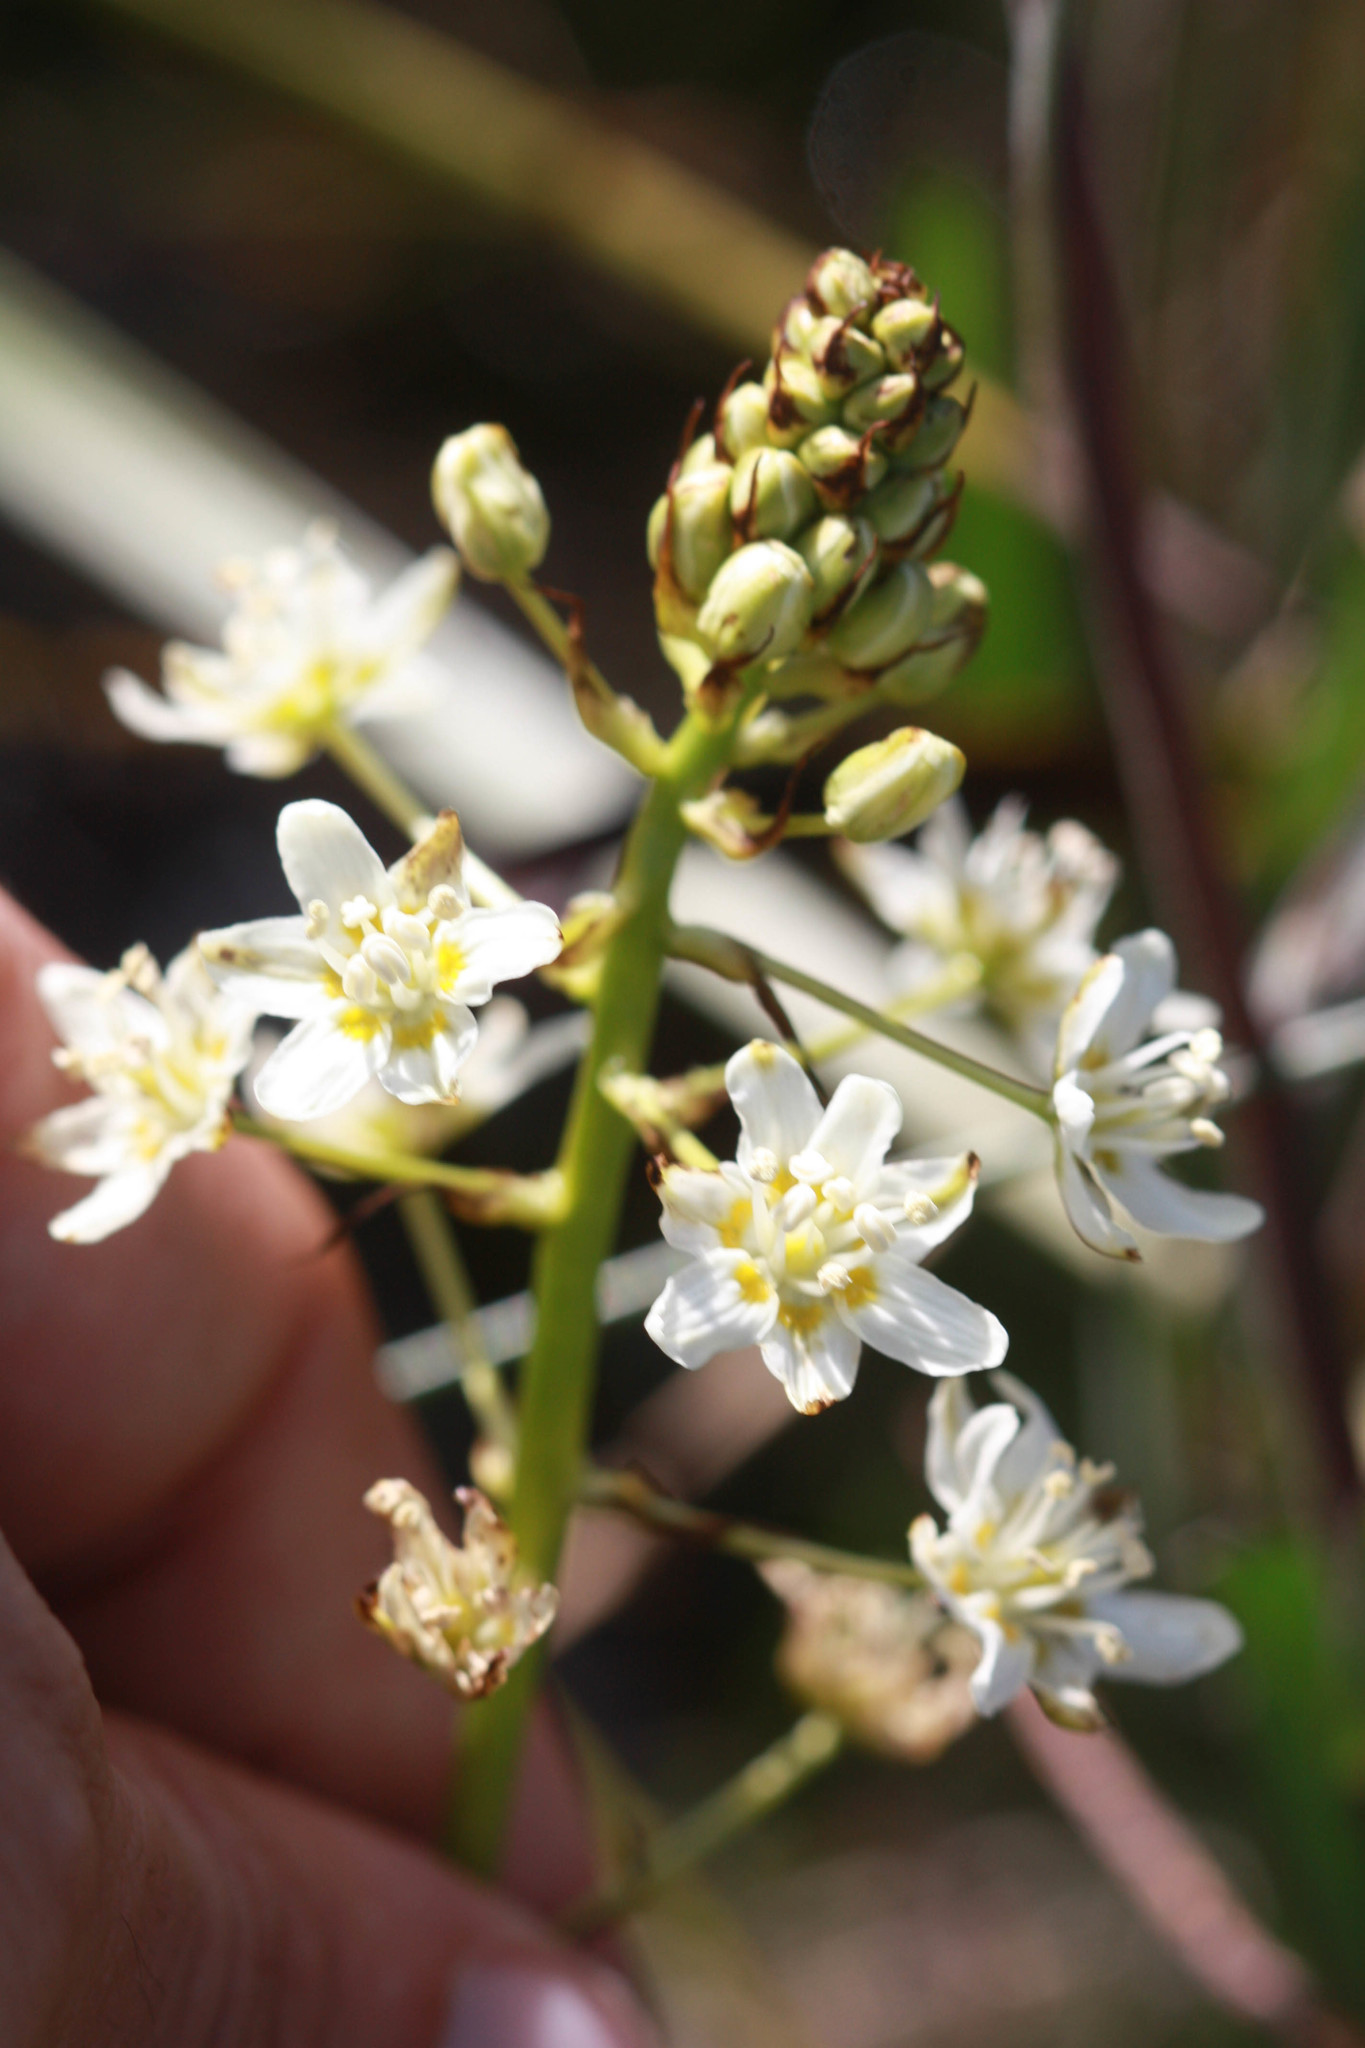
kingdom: Plantae
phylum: Tracheophyta
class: Liliopsida
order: Liliales
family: Melanthiaceae
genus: Toxicoscordion
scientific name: Toxicoscordion fontanum
